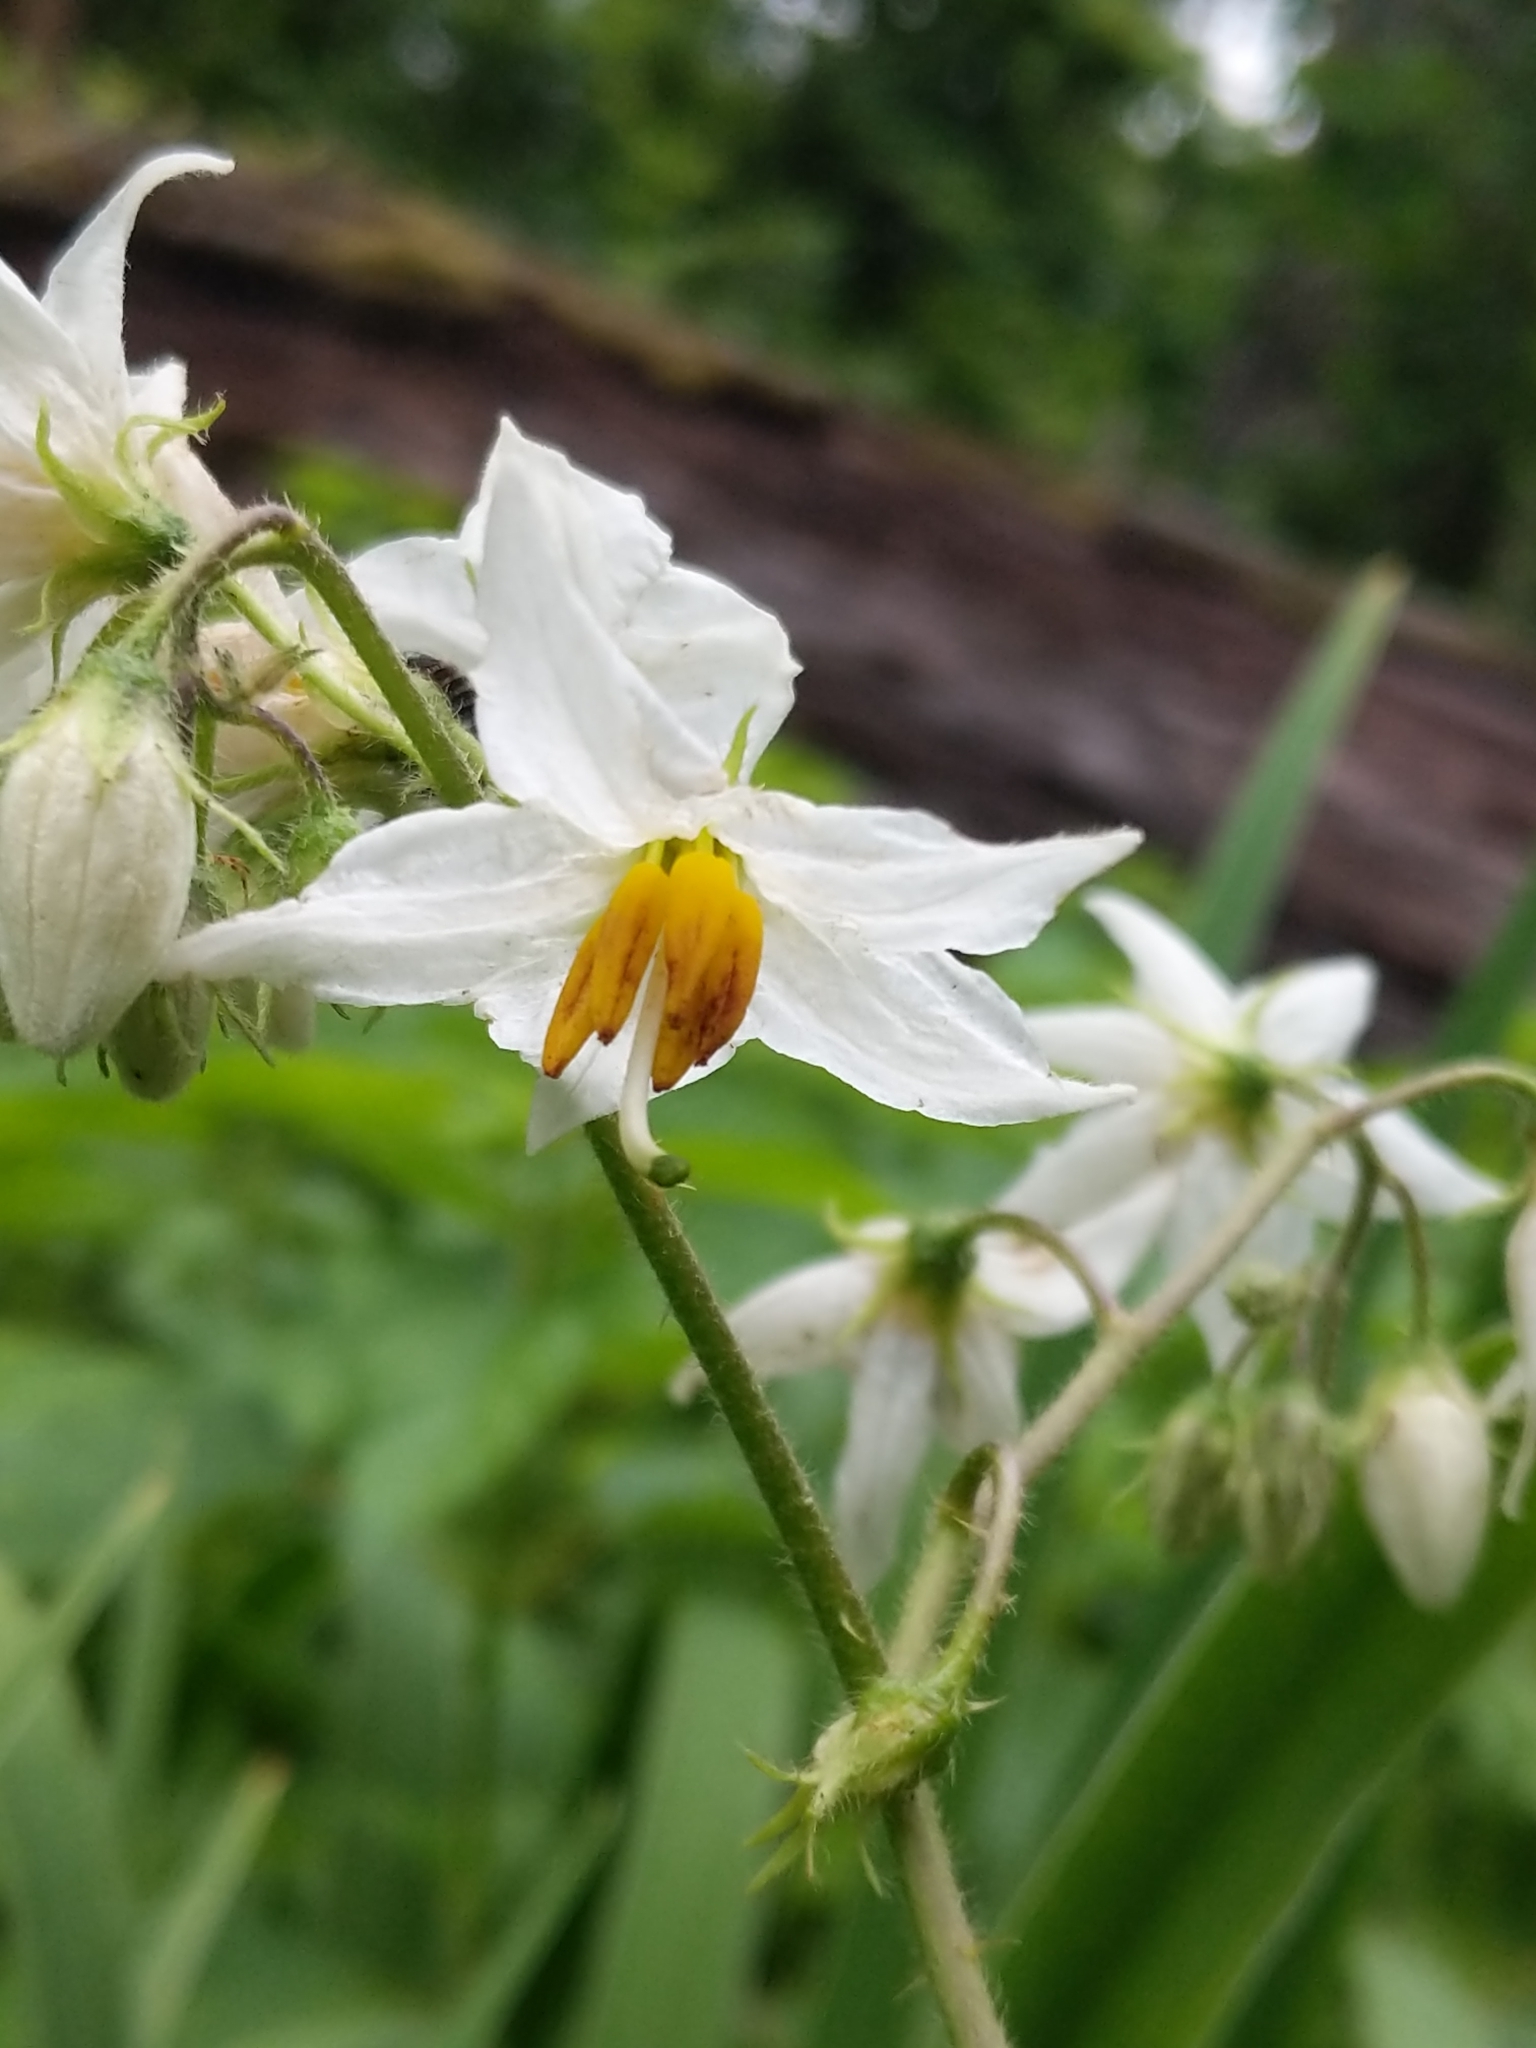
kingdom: Plantae
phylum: Tracheophyta
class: Magnoliopsida
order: Solanales
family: Solanaceae
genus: Solanum
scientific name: Solanum carolinense
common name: Horse-nettle
